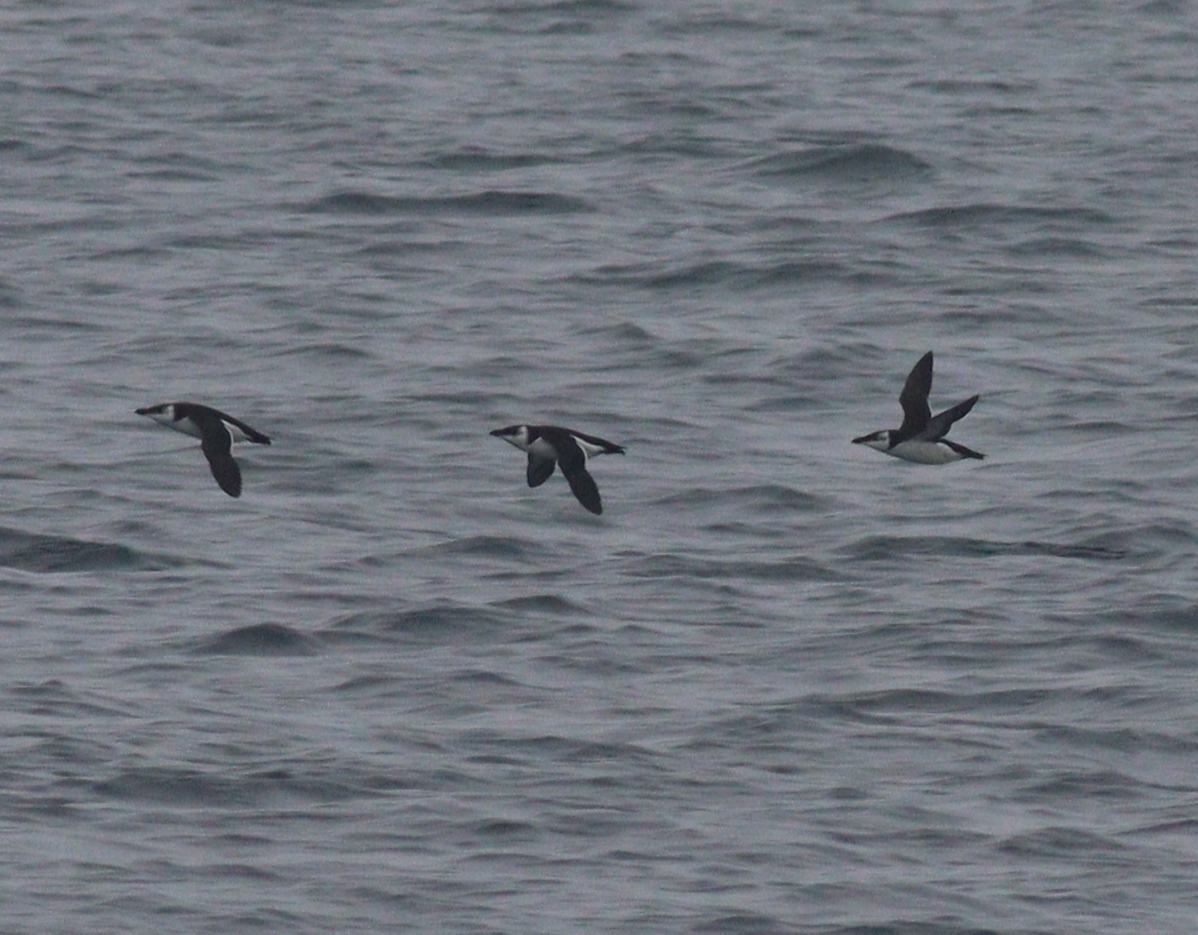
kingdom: Animalia
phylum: Chordata
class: Aves
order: Charadriiformes
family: Alcidae
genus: Alca
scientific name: Alca torda
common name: Razorbill
